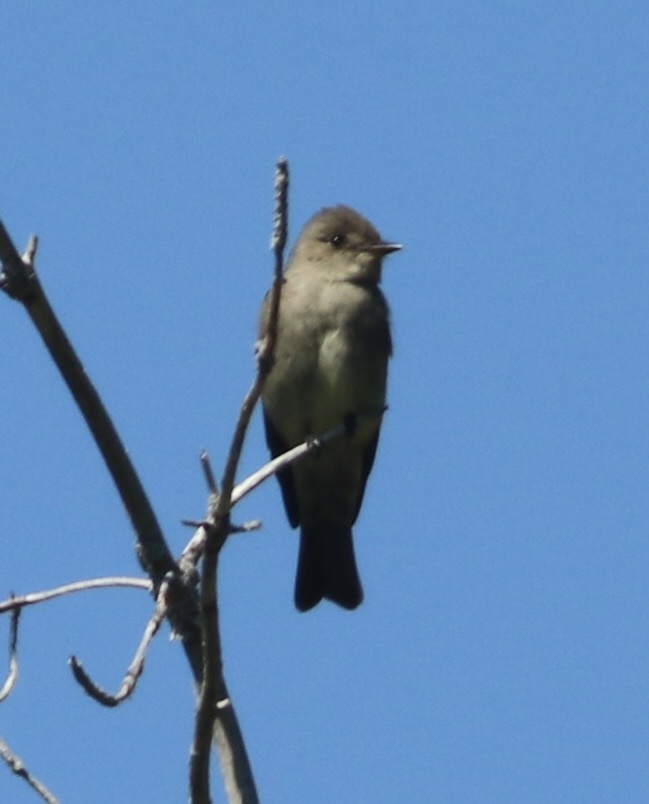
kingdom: Animalia
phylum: Chordata
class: Aves
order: Passeriformes
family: Tyrannidae
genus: Contopus
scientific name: Contopus sordidulus
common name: Western wood-pewee
